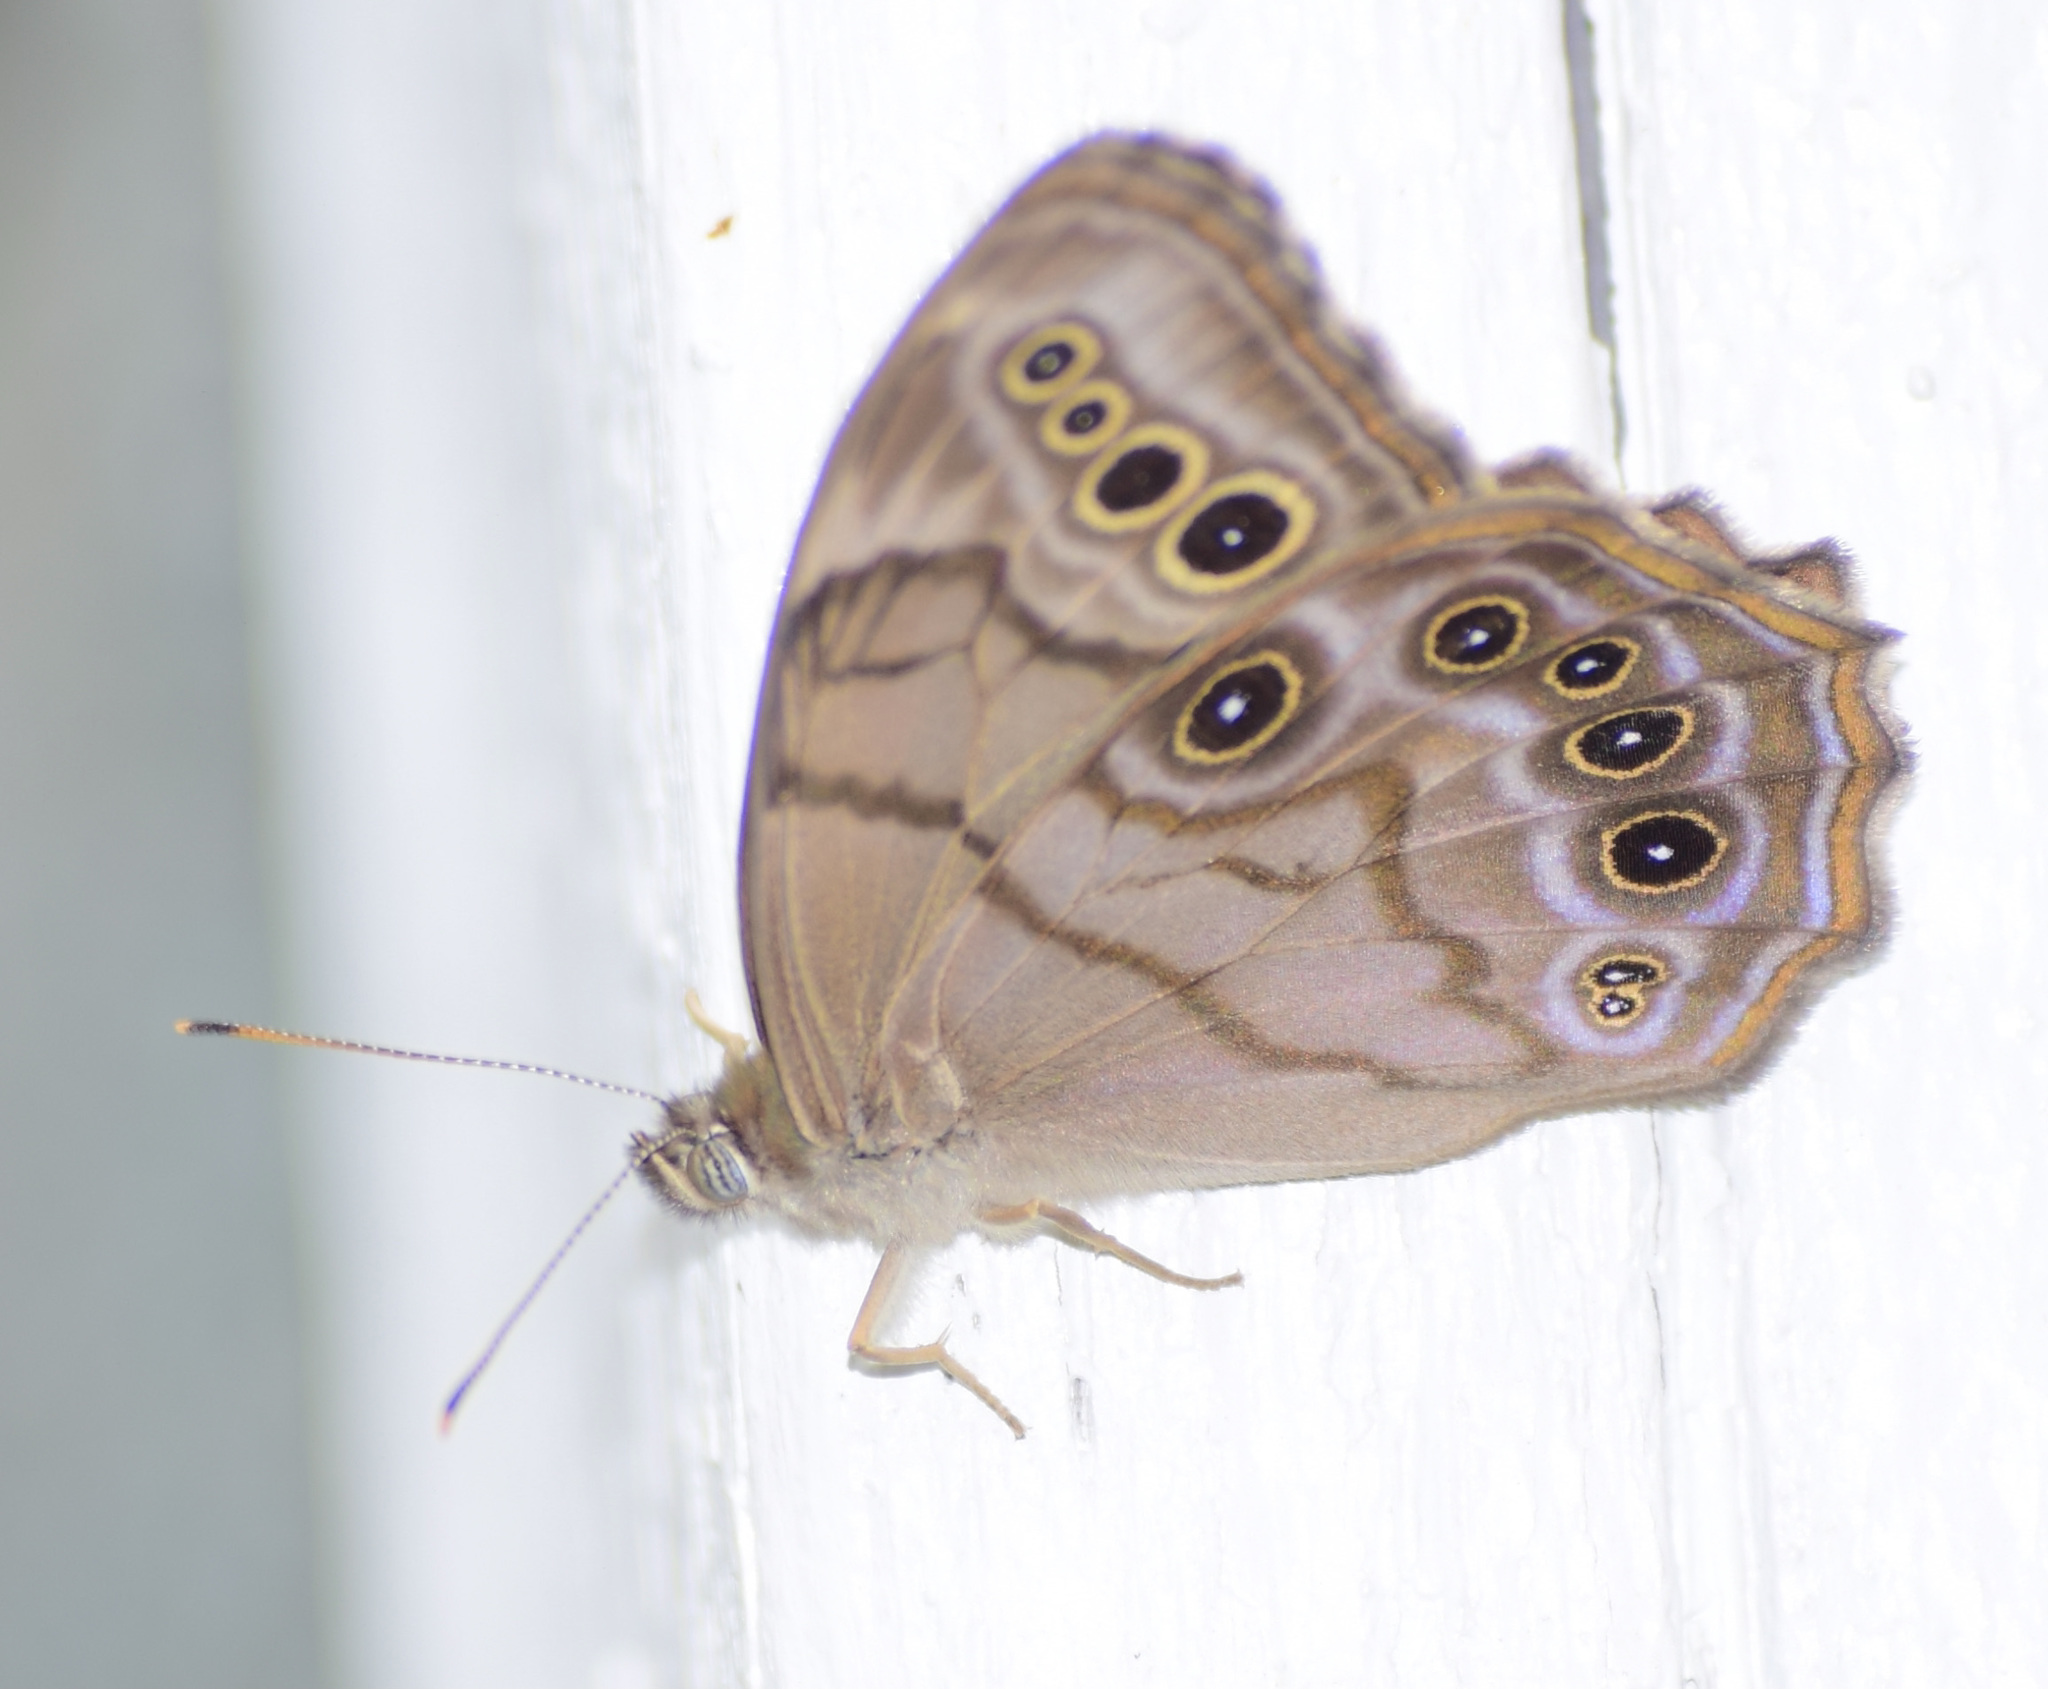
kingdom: Animalia
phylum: Arthropoda
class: Insecta
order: Lepidoptera
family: Nymphalidae
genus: Lethe
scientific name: Lethe anthedon
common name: Northern pearly-eye
